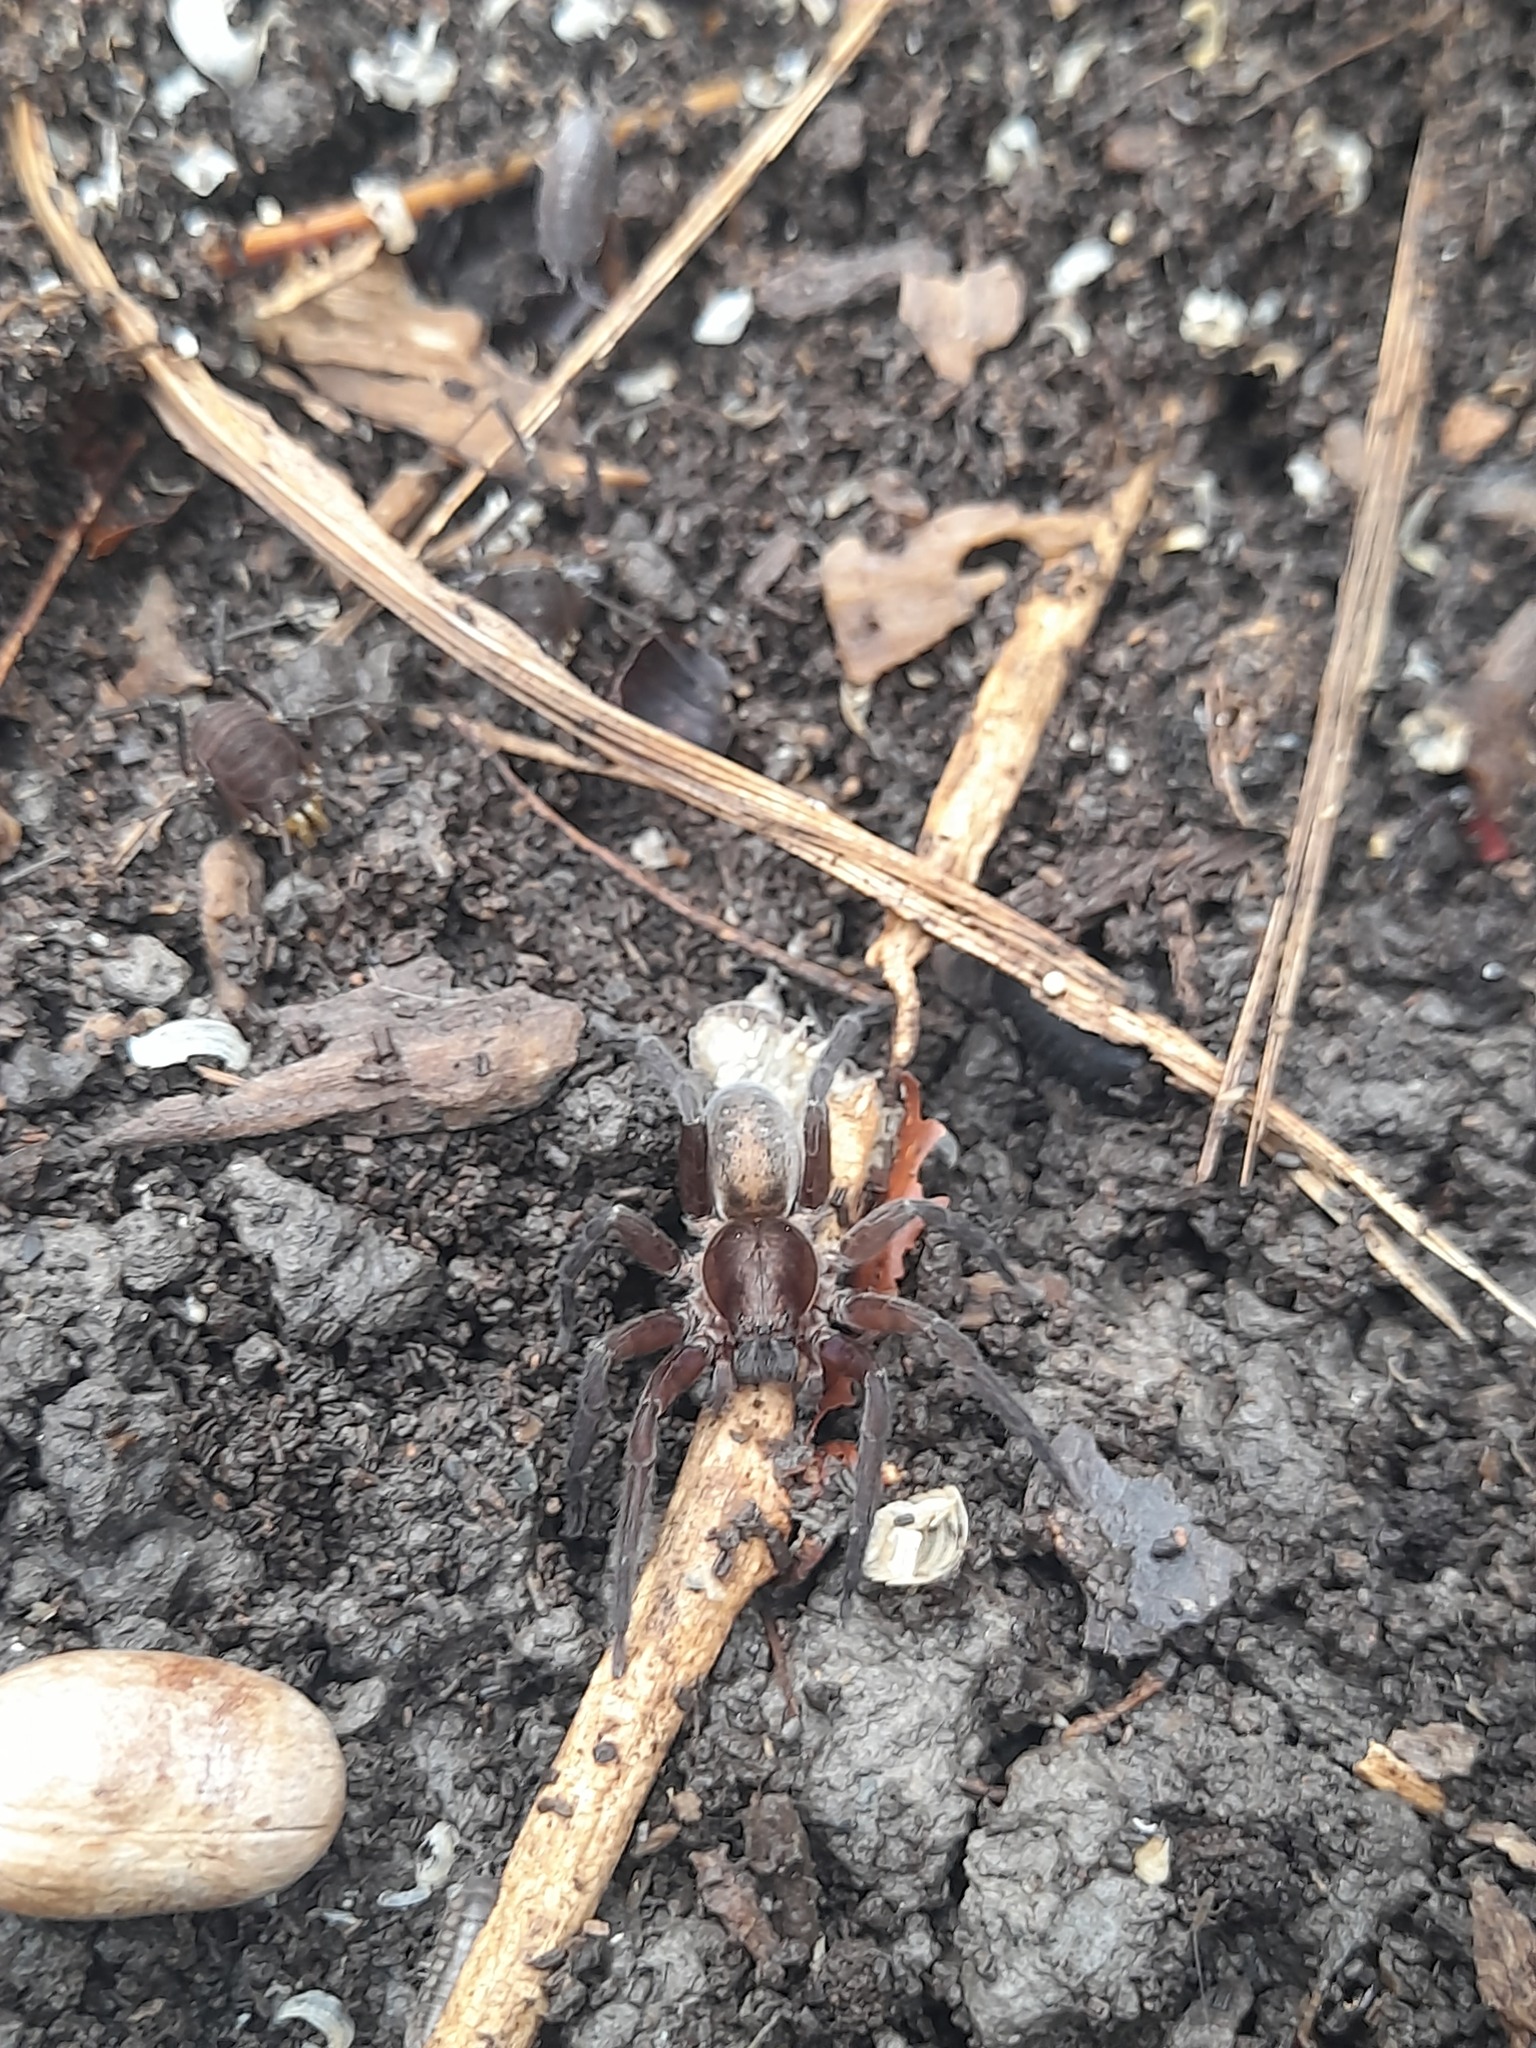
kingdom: Animalia
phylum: Arthropoda
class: Arachnida
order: Araneae
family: Ctenidae
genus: Asthenoctenus
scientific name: Asthenoctenus borellii
